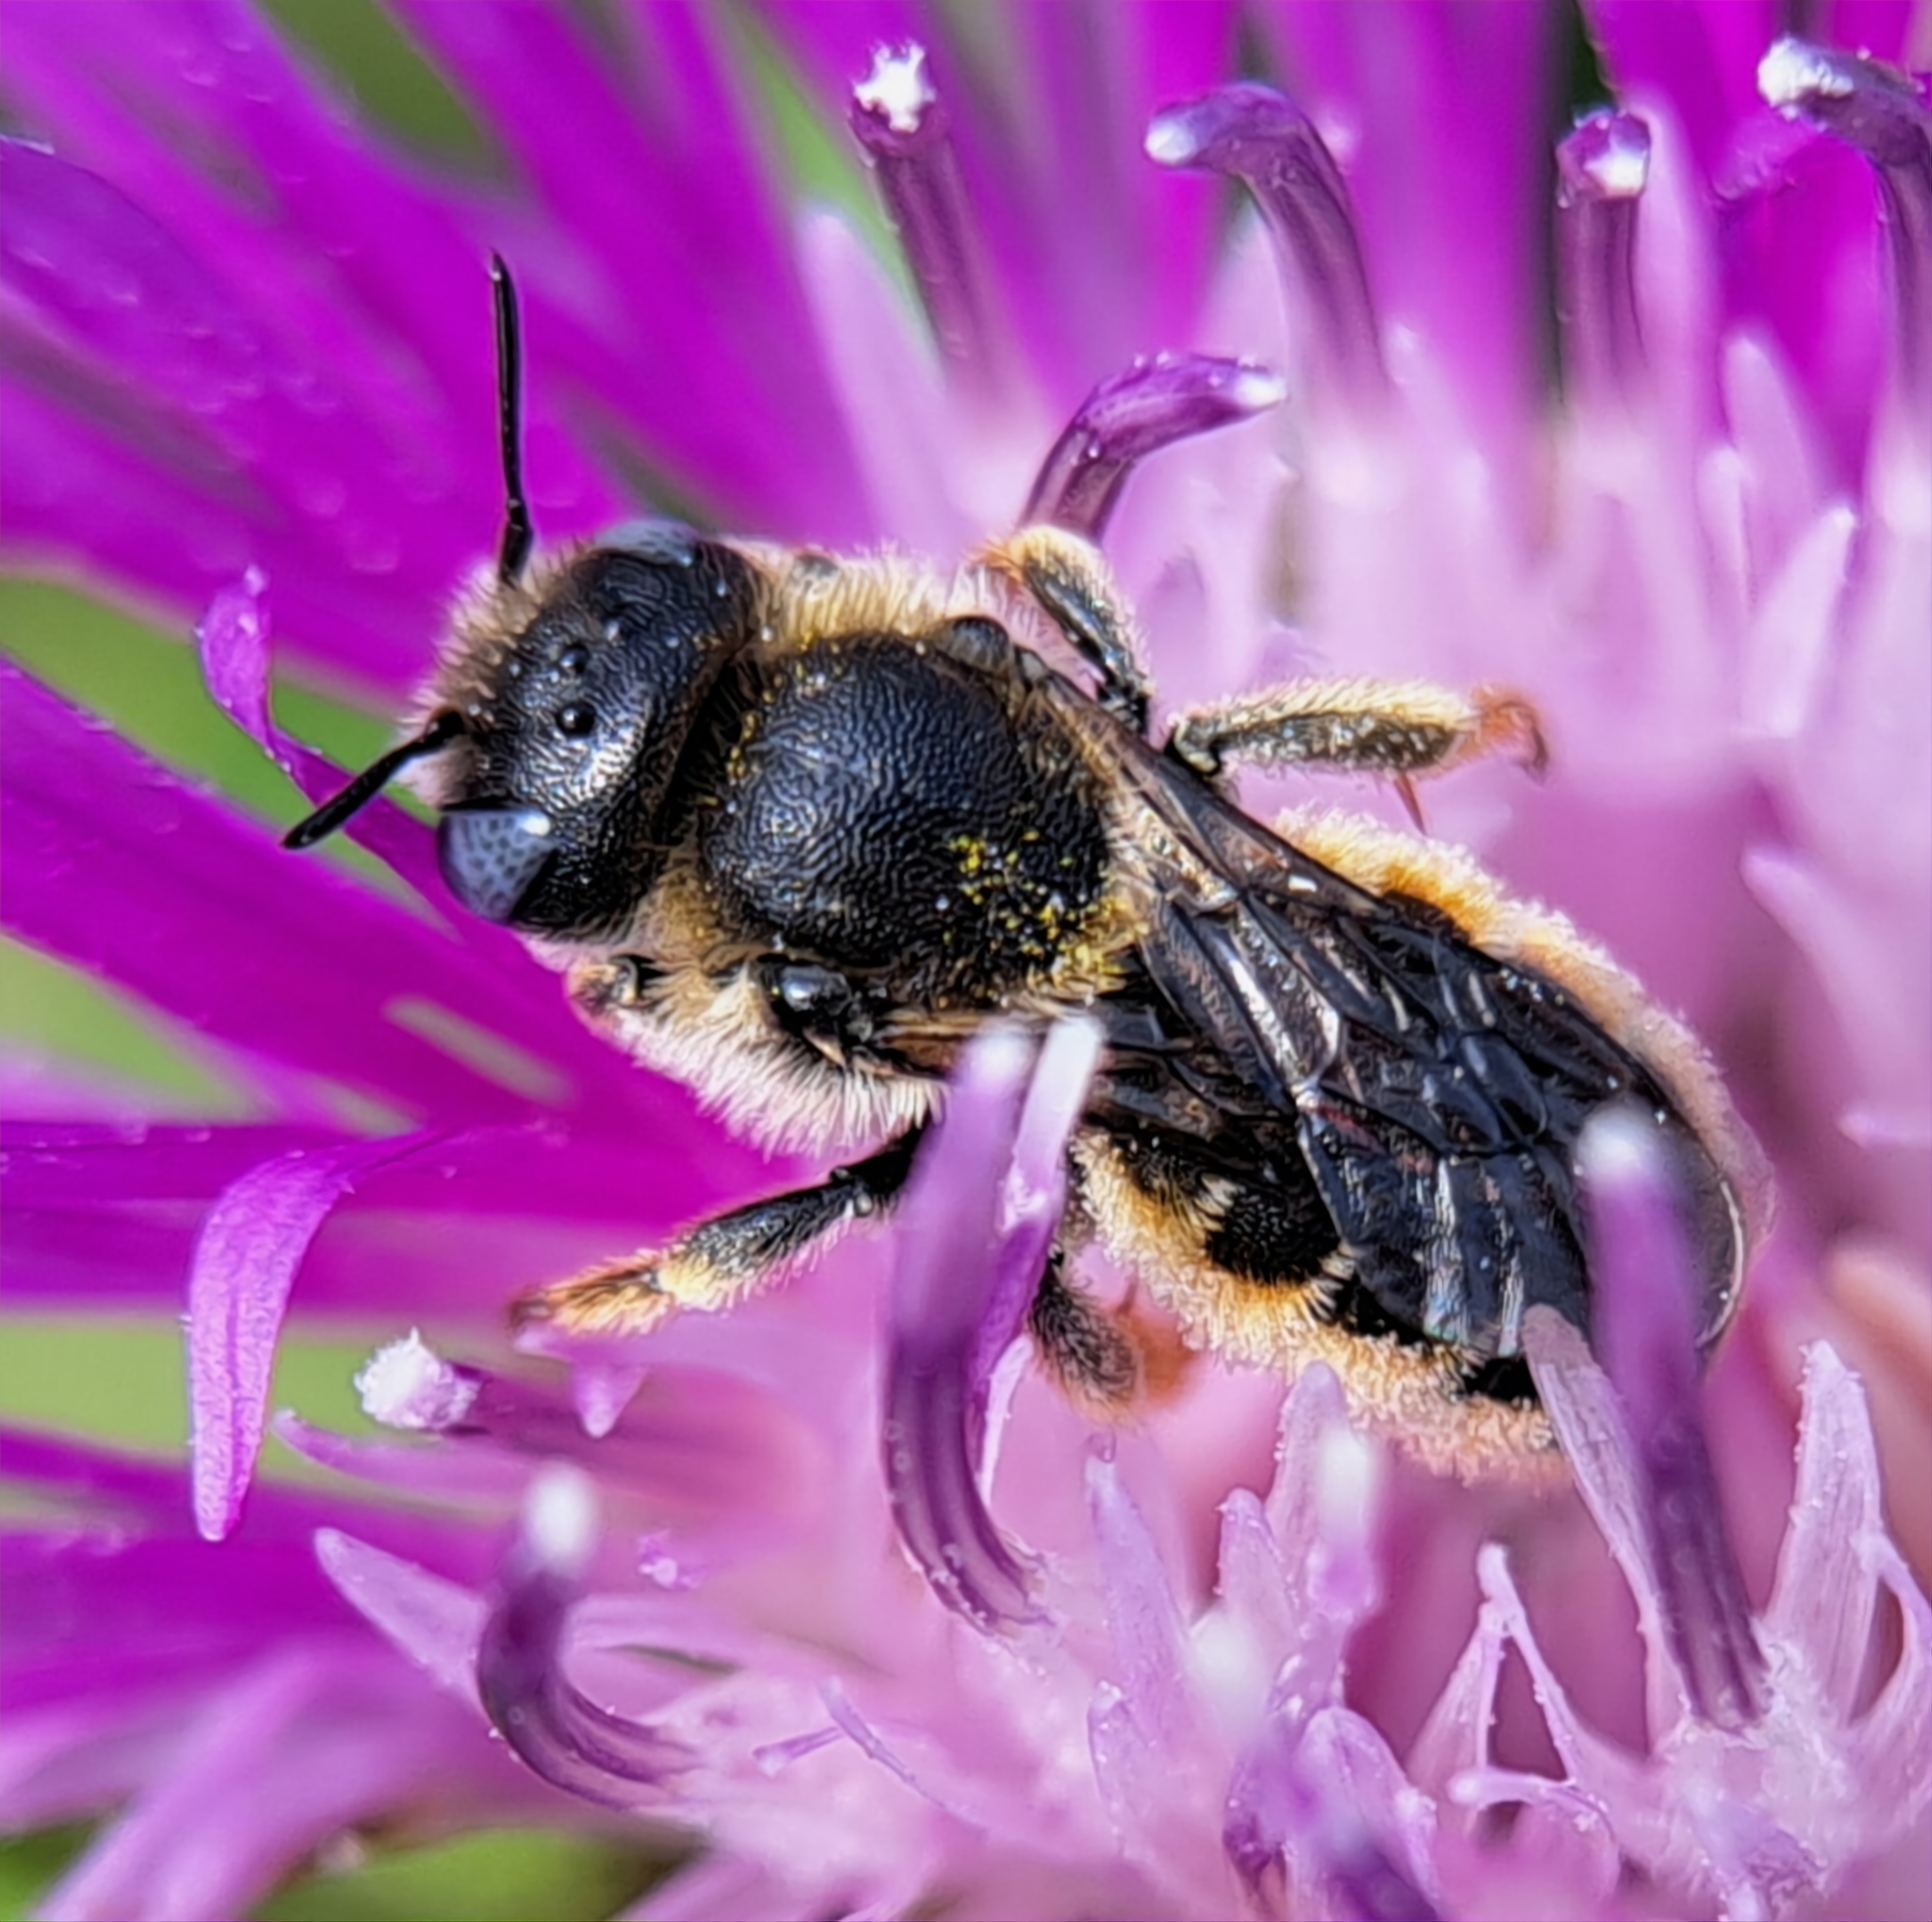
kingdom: Animalia
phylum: Arthropoda
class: Insecta
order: Hymenoptera
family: Megachilidae
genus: Osmia
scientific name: Osmia spinulosa
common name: Spined mason bee
